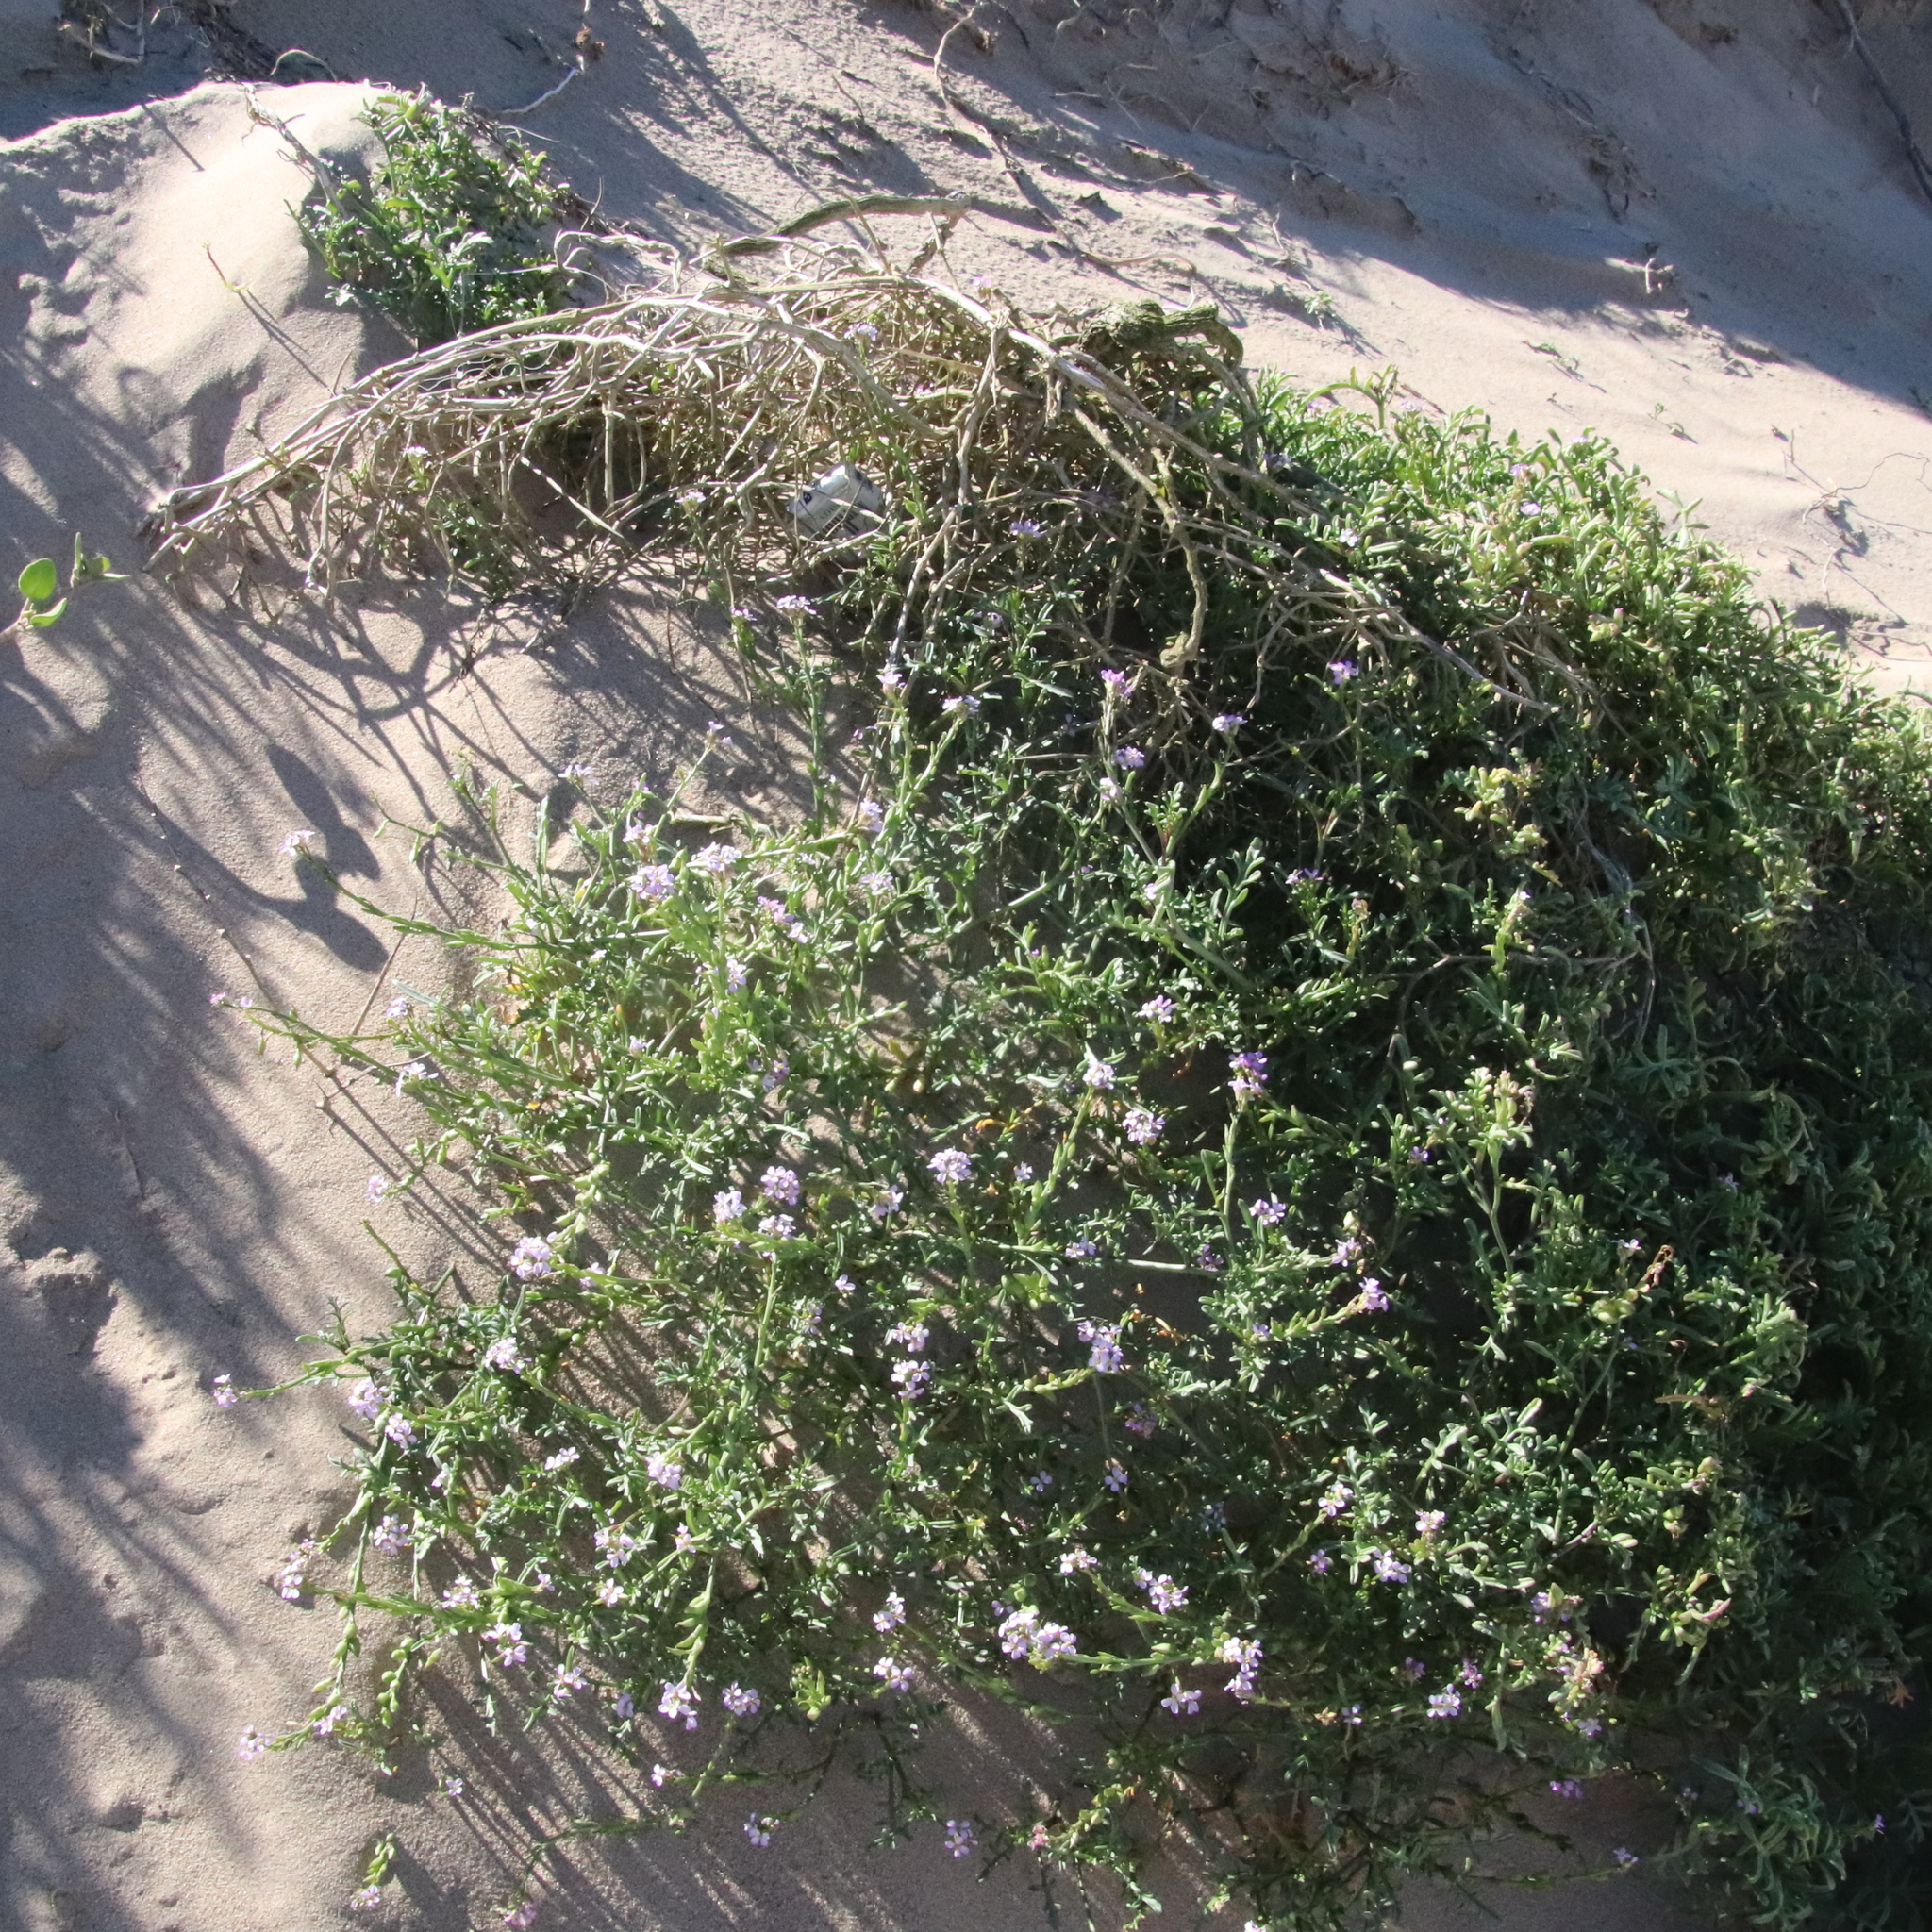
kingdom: Plantae
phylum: Tracheophyta
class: Magnoliopsida
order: Brassicales
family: Brassicaceae
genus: Cakile
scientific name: Cakile maritima
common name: Sea rocket
